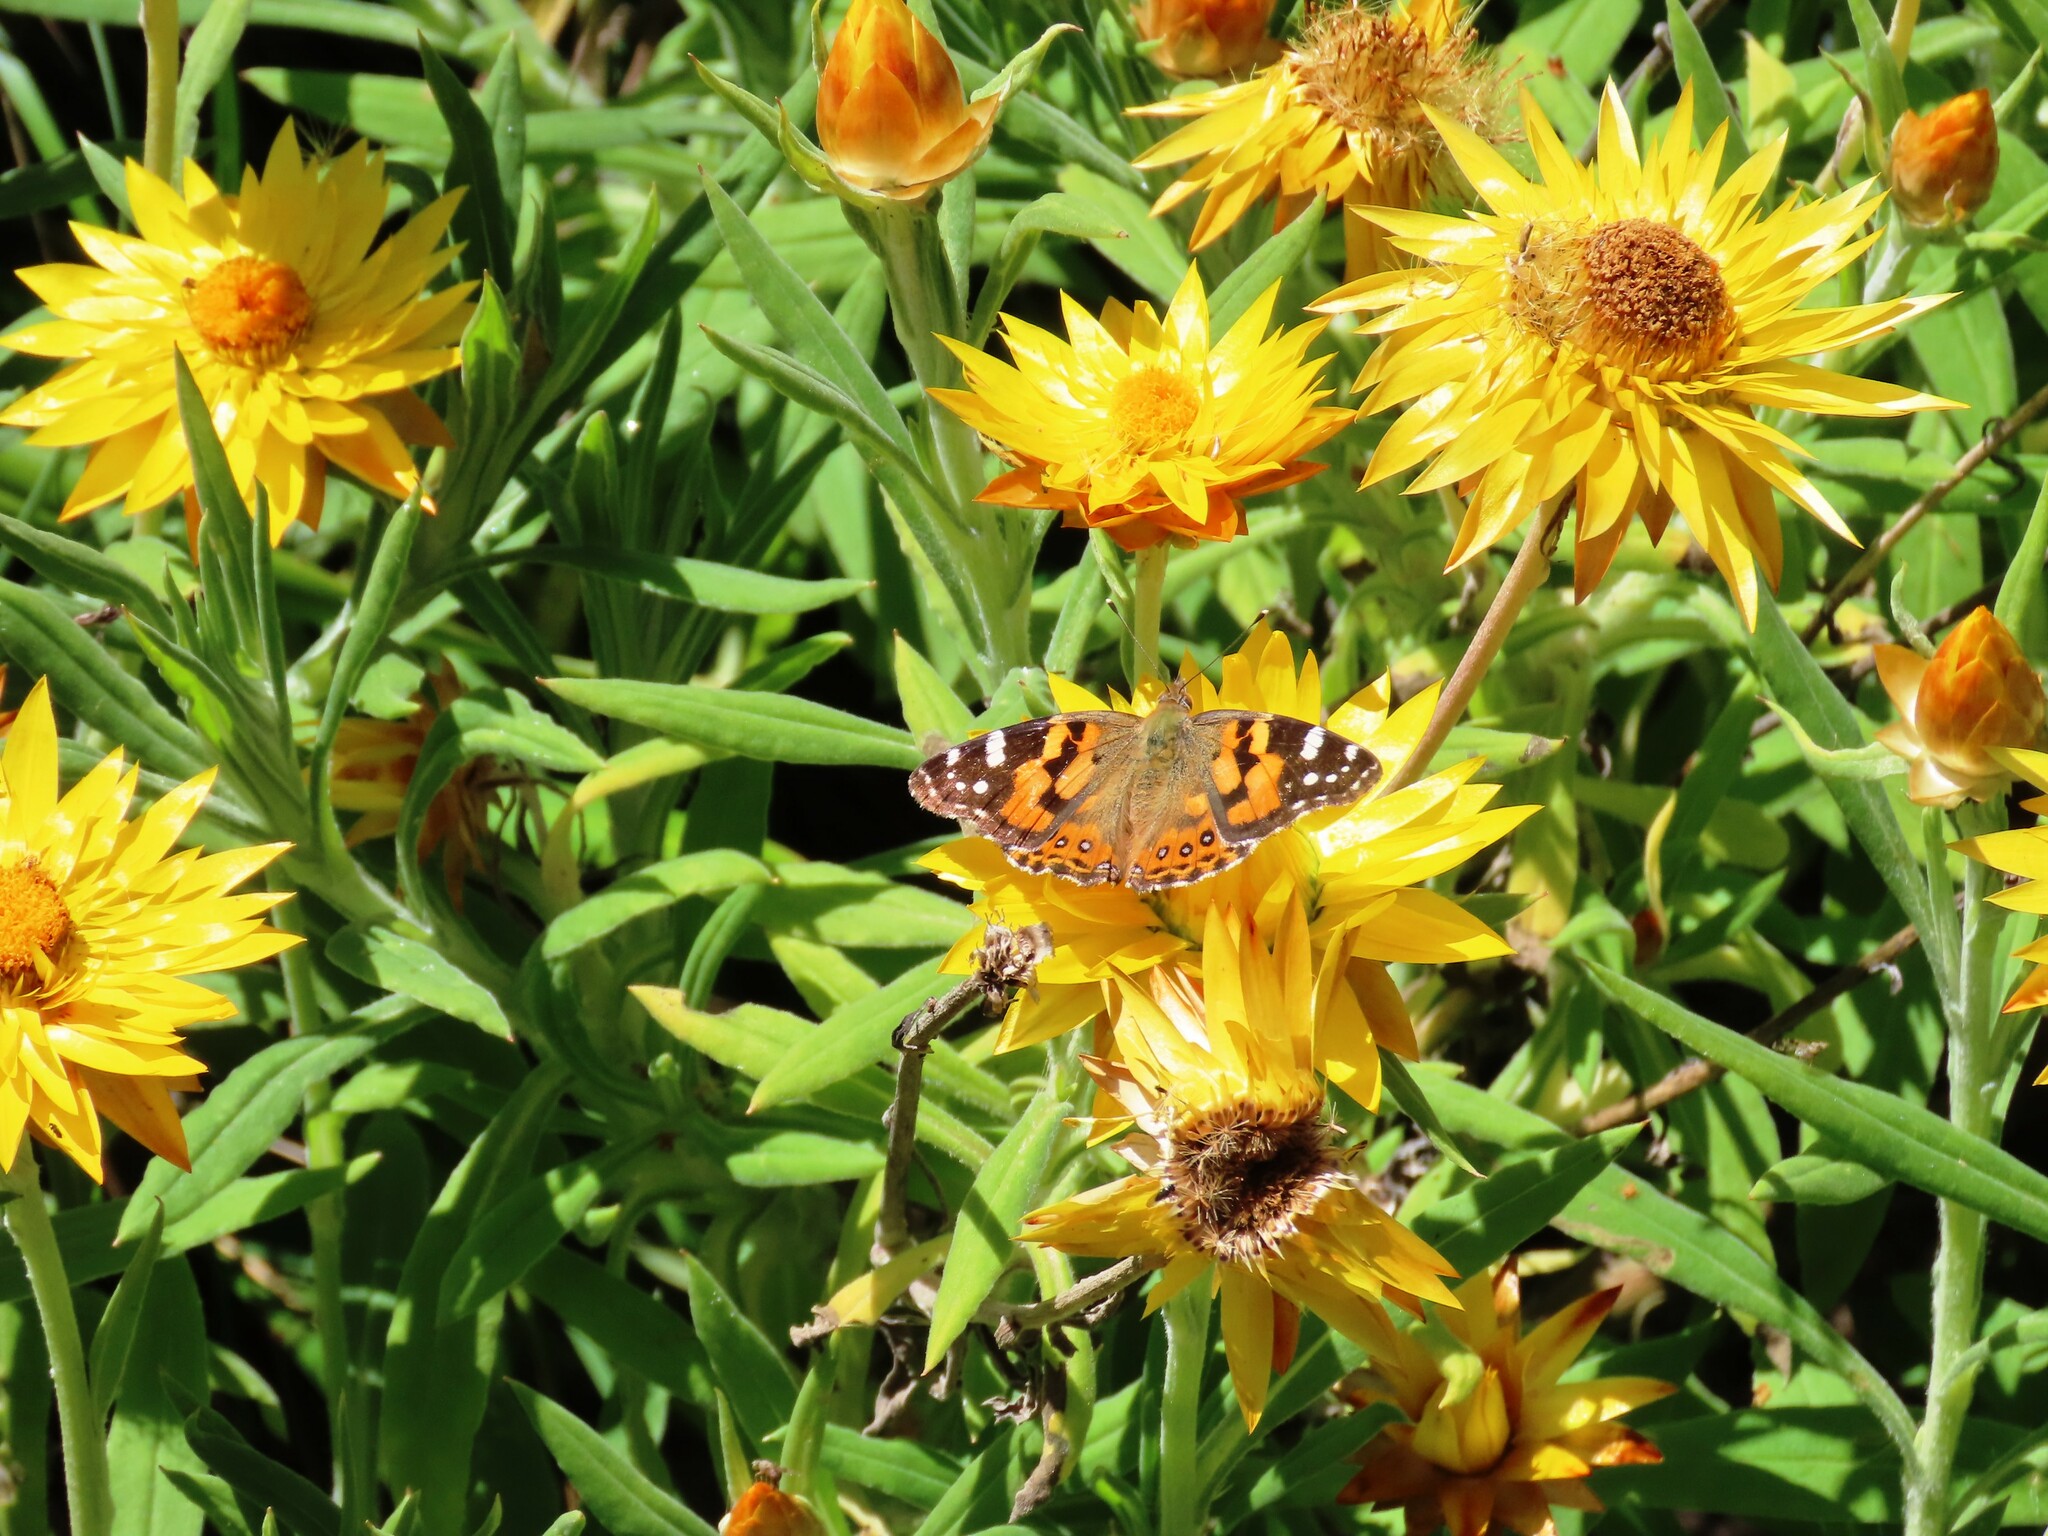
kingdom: Animalia
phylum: Arthropoda
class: Insecta
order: Lepidoptera
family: Nymphalidae
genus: Vanessa
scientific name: Vanessa kershawi
